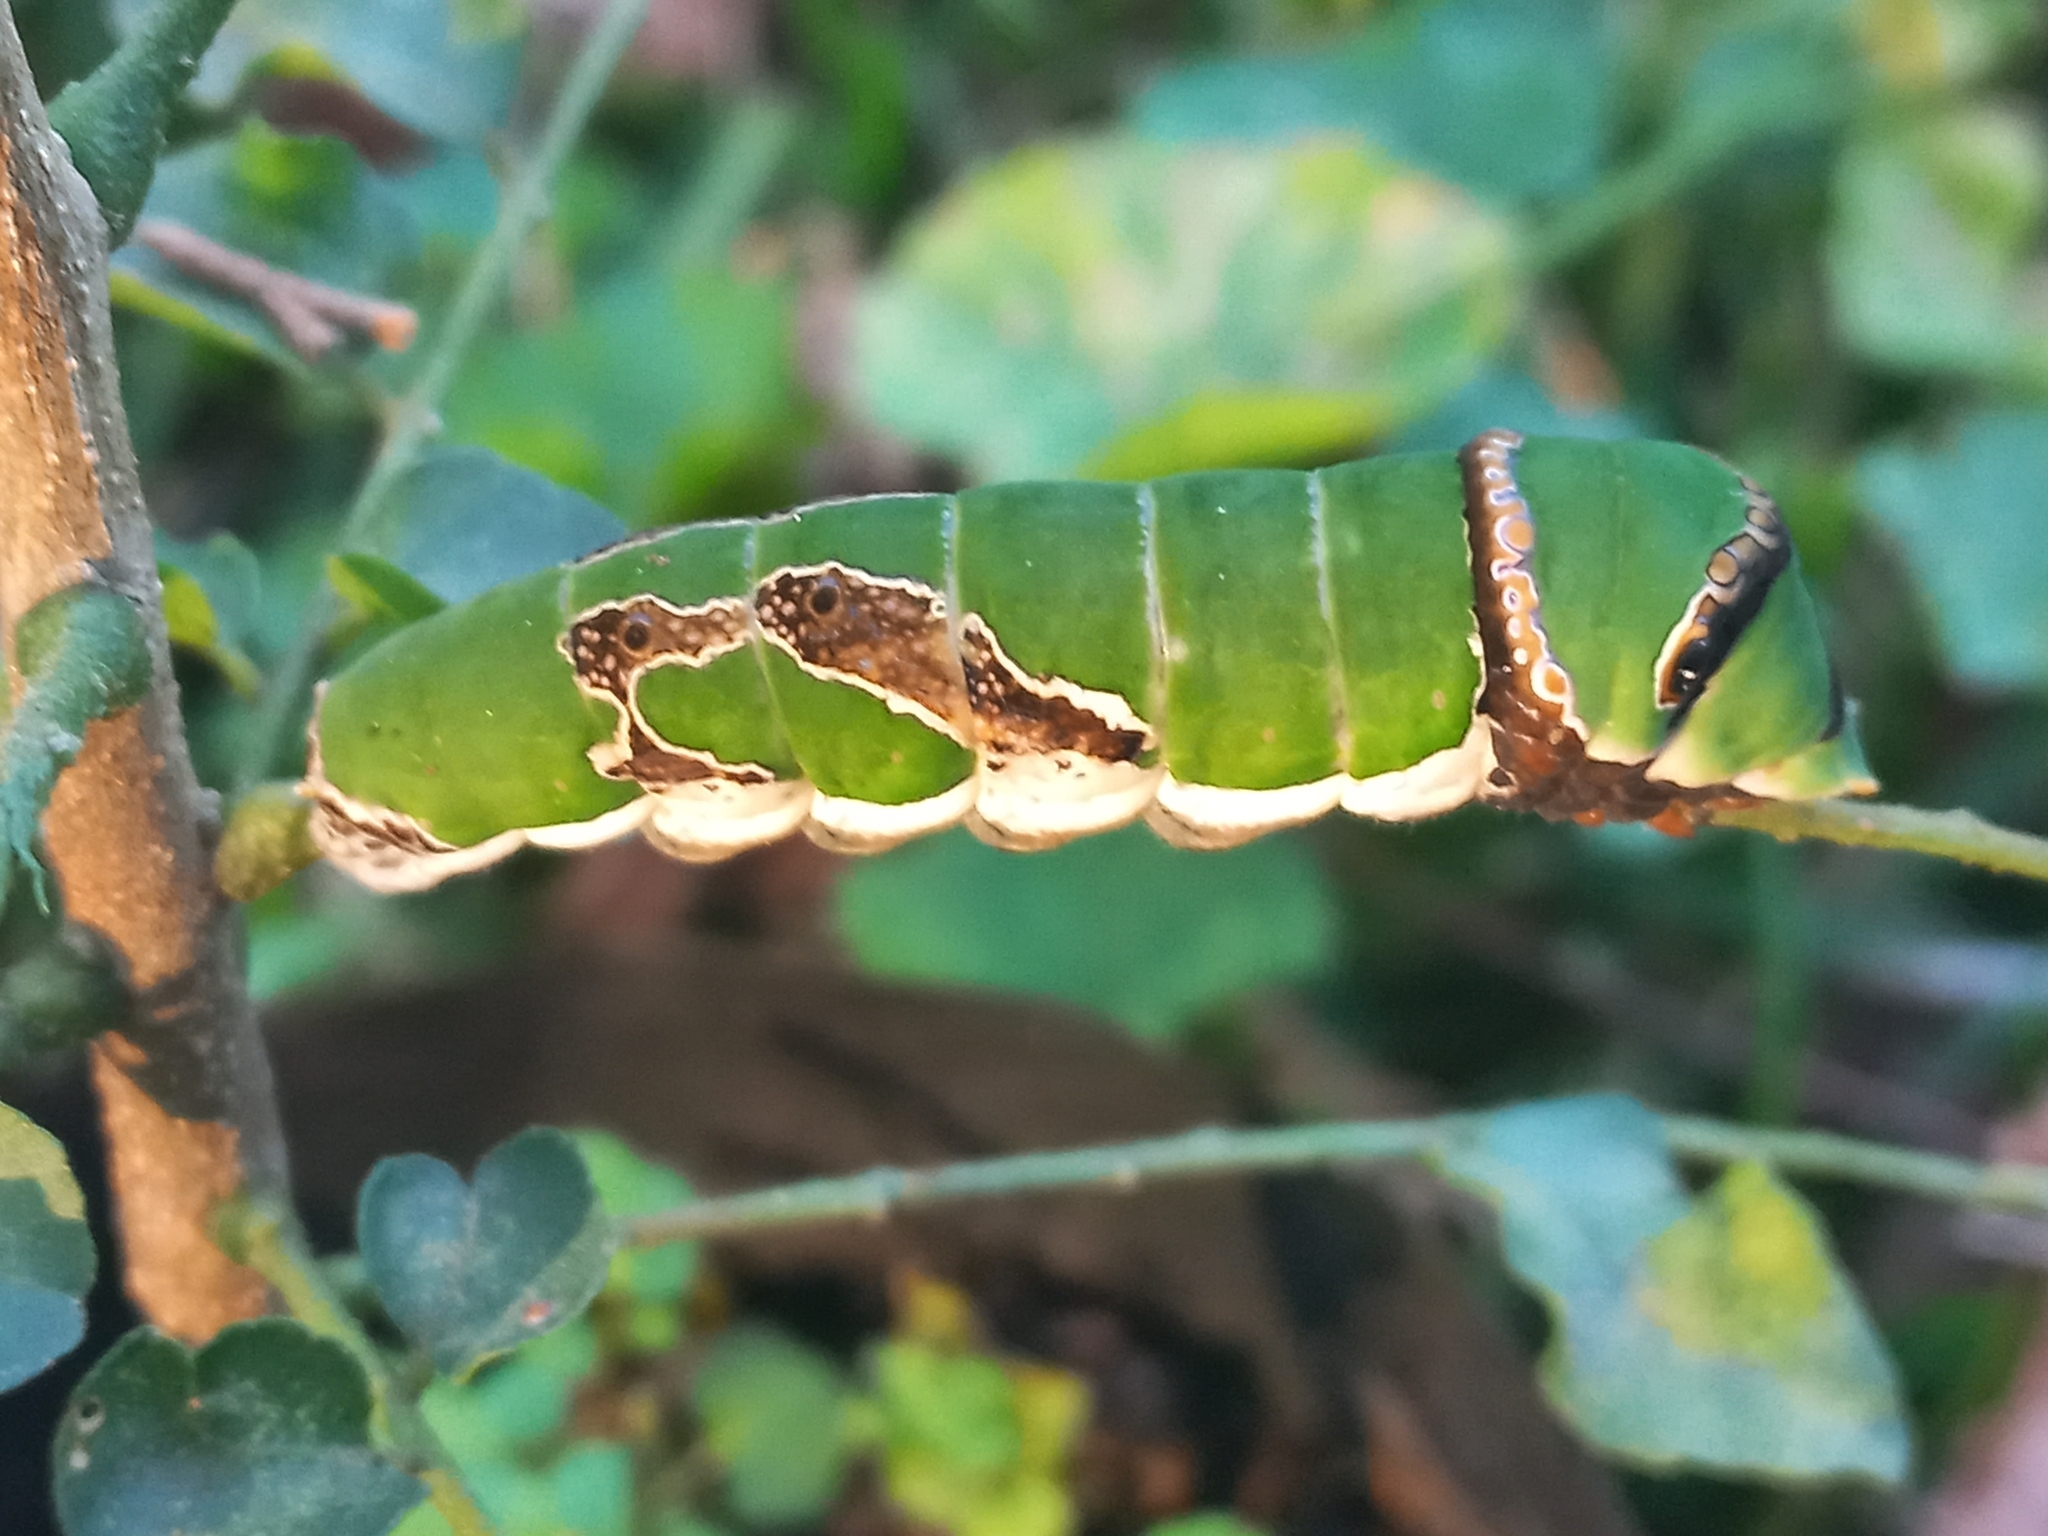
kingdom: Animalia
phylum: Arthropoda
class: Insecta
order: Lepidoptera
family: Papilionidae
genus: Papilio
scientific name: Papilio demodocus
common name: Christmas butterfly
